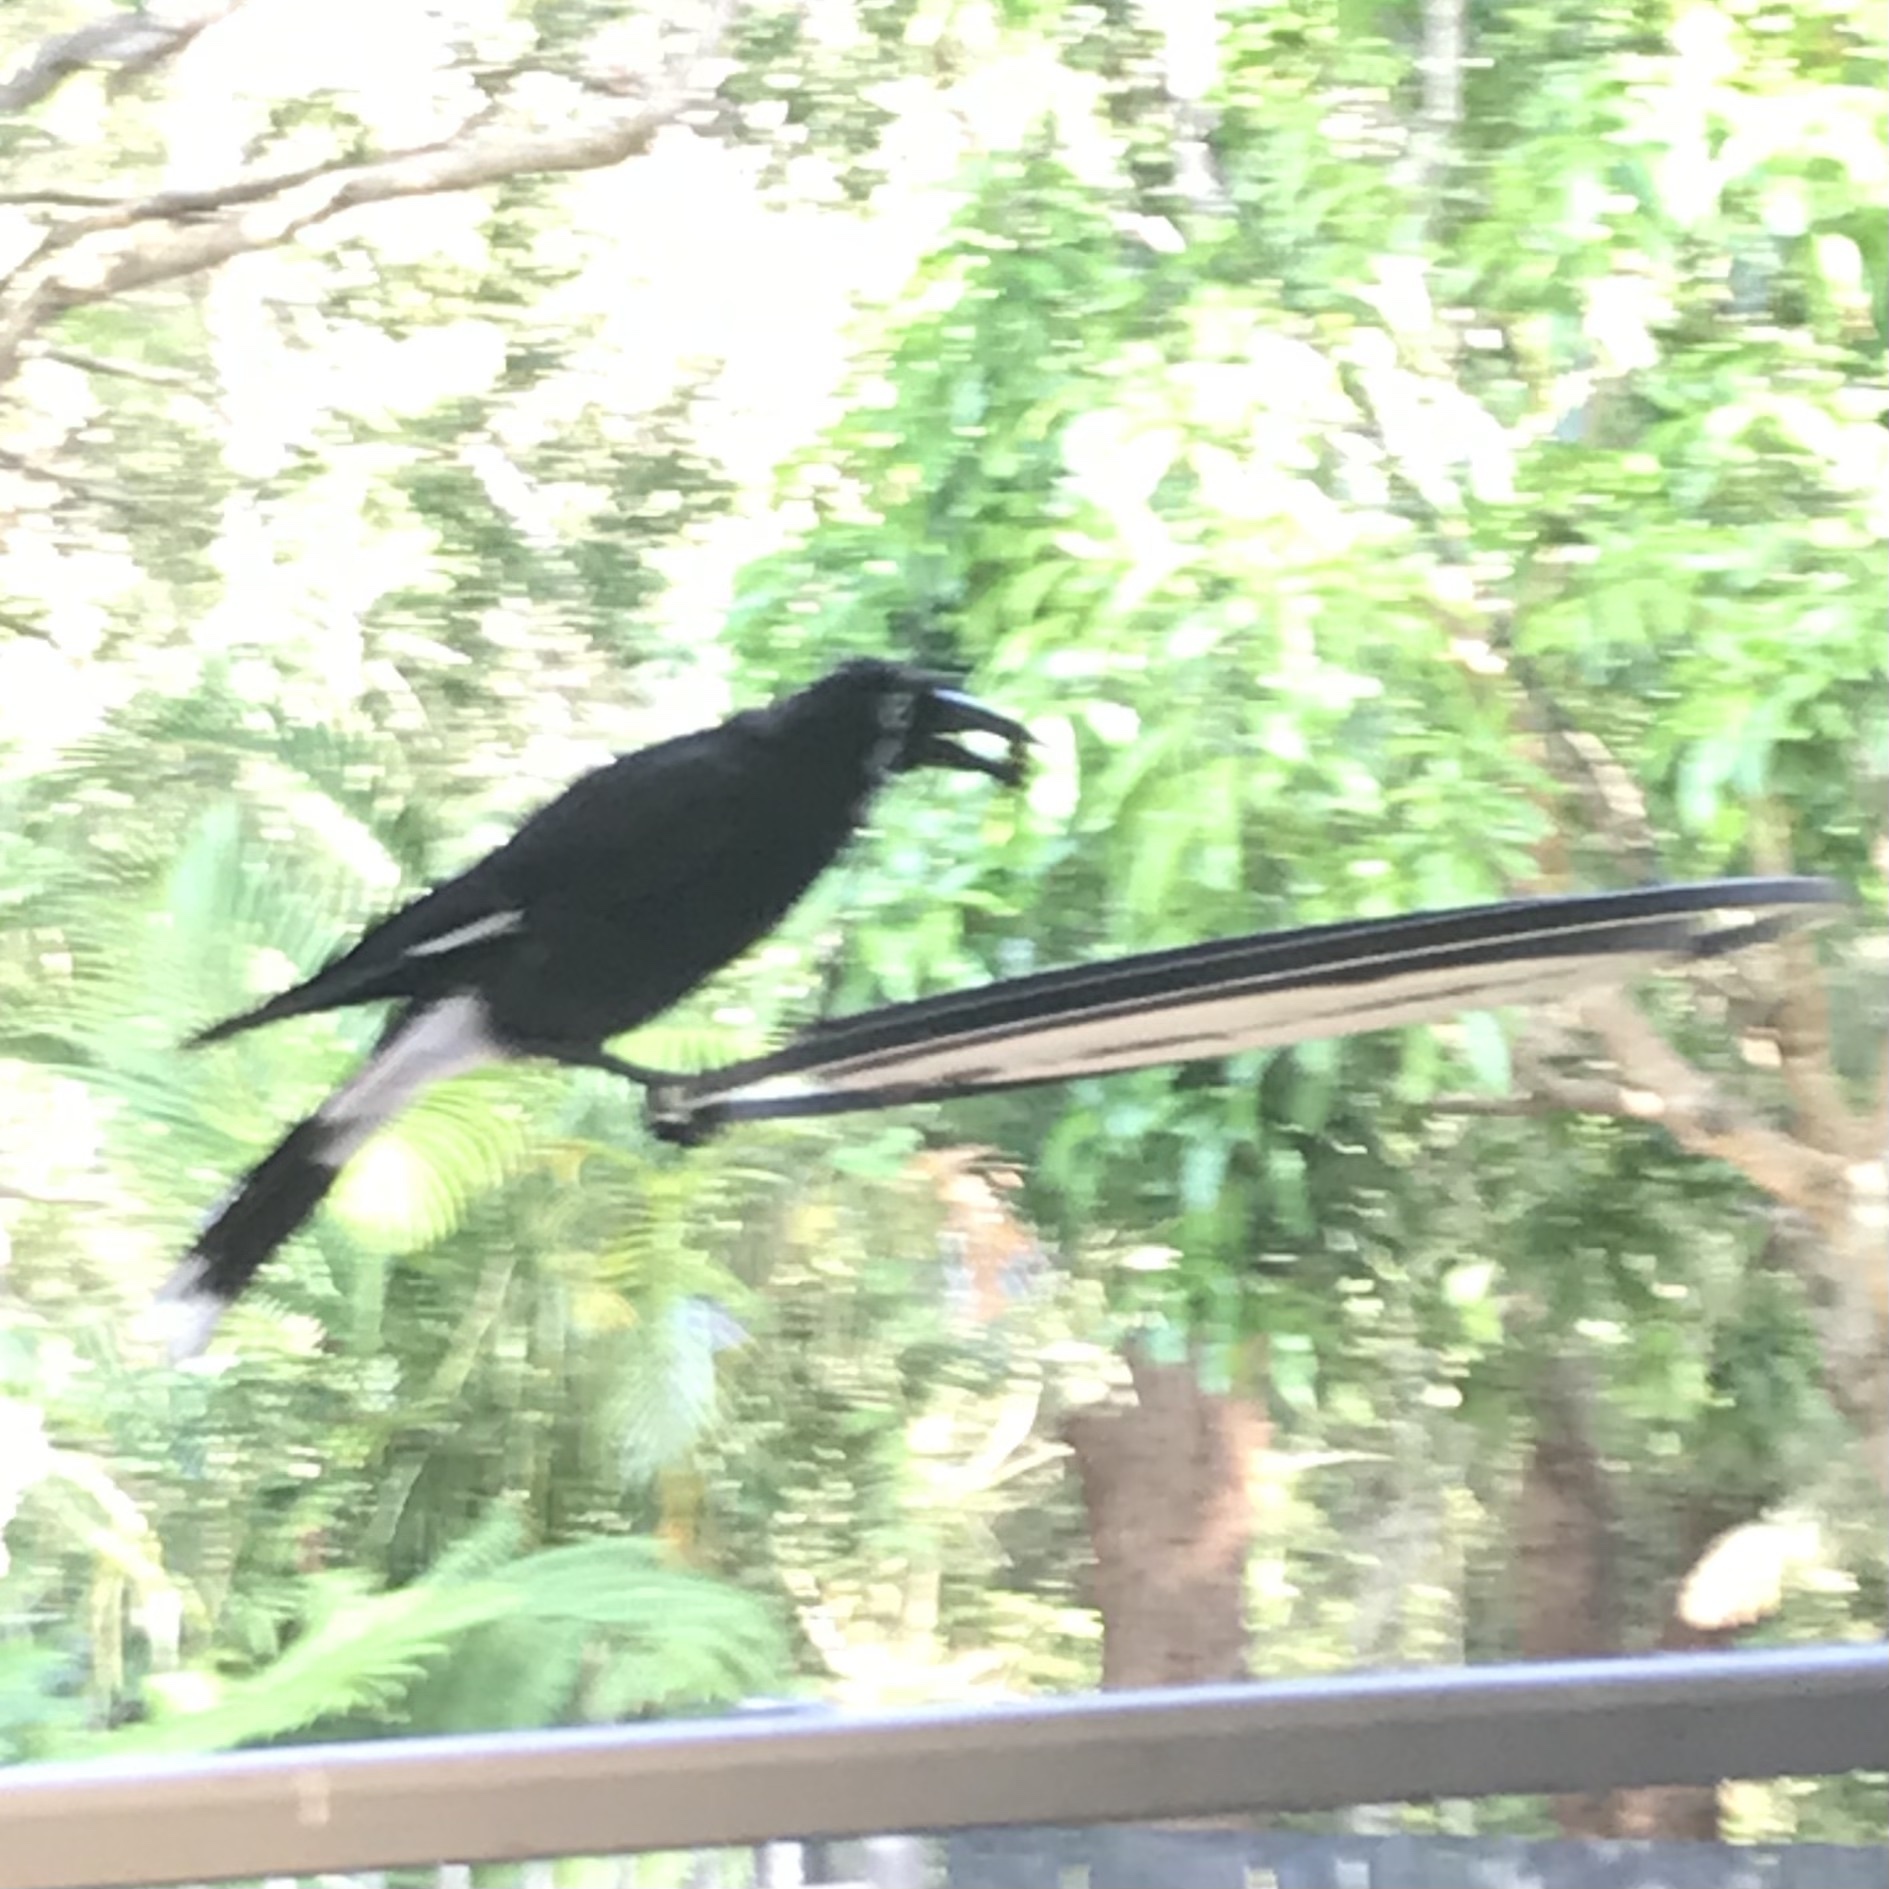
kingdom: Animalia
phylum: Chordata
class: Aves
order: Passeriformes
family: Cracticidae
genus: Strepera
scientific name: Strepera graculina
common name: Pied currawong
